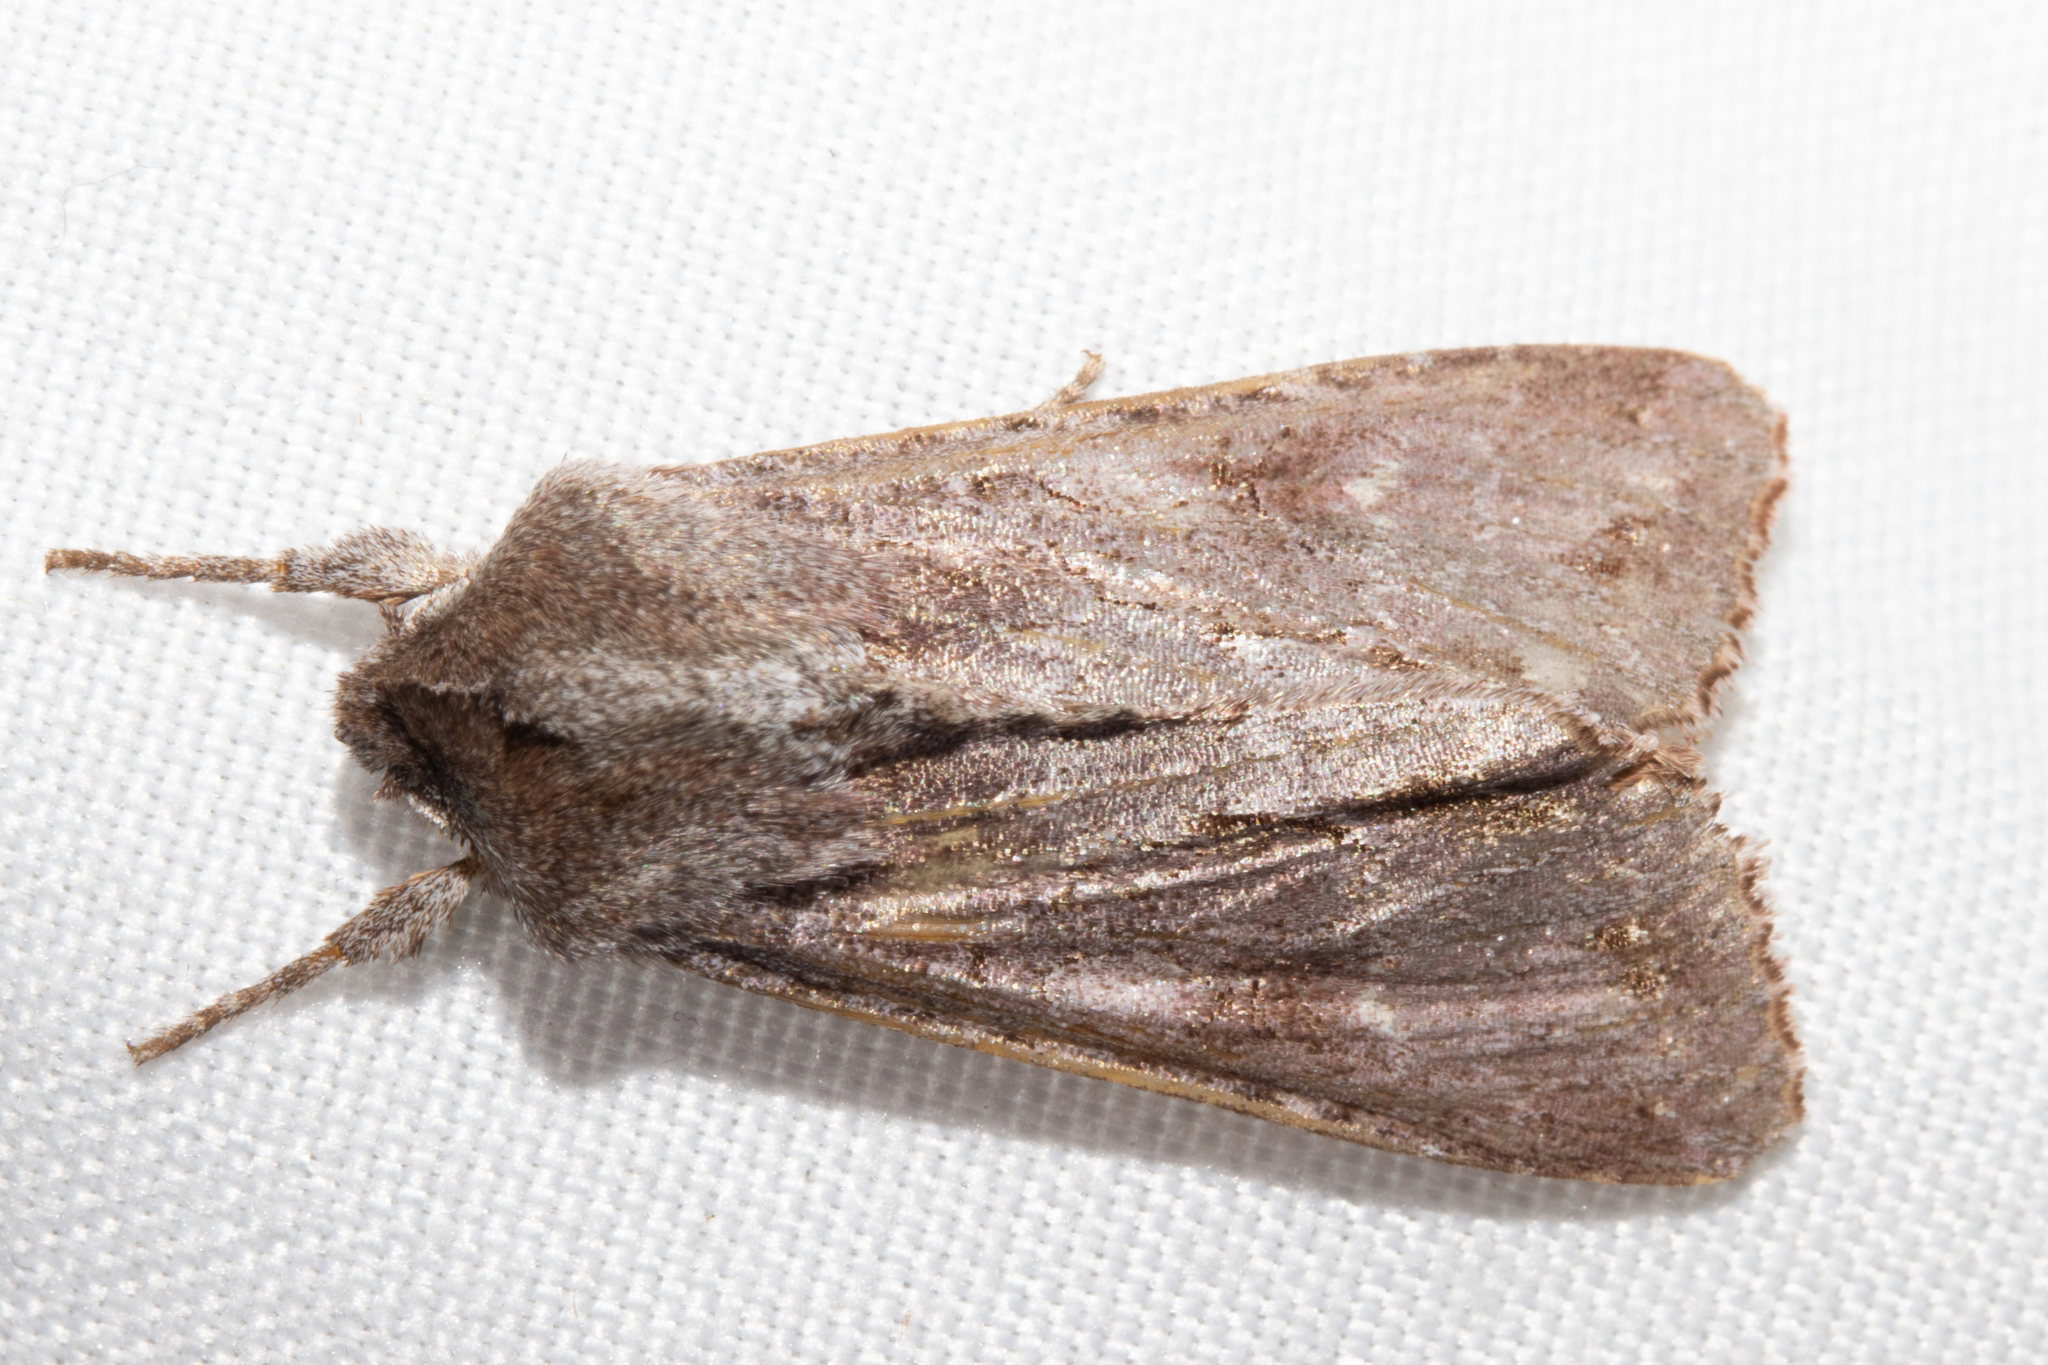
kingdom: Animalia
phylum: Arthropoda
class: Insecta
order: Lepidoptera
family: Noctuidae
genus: Ichneutica
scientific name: Ichneutica
